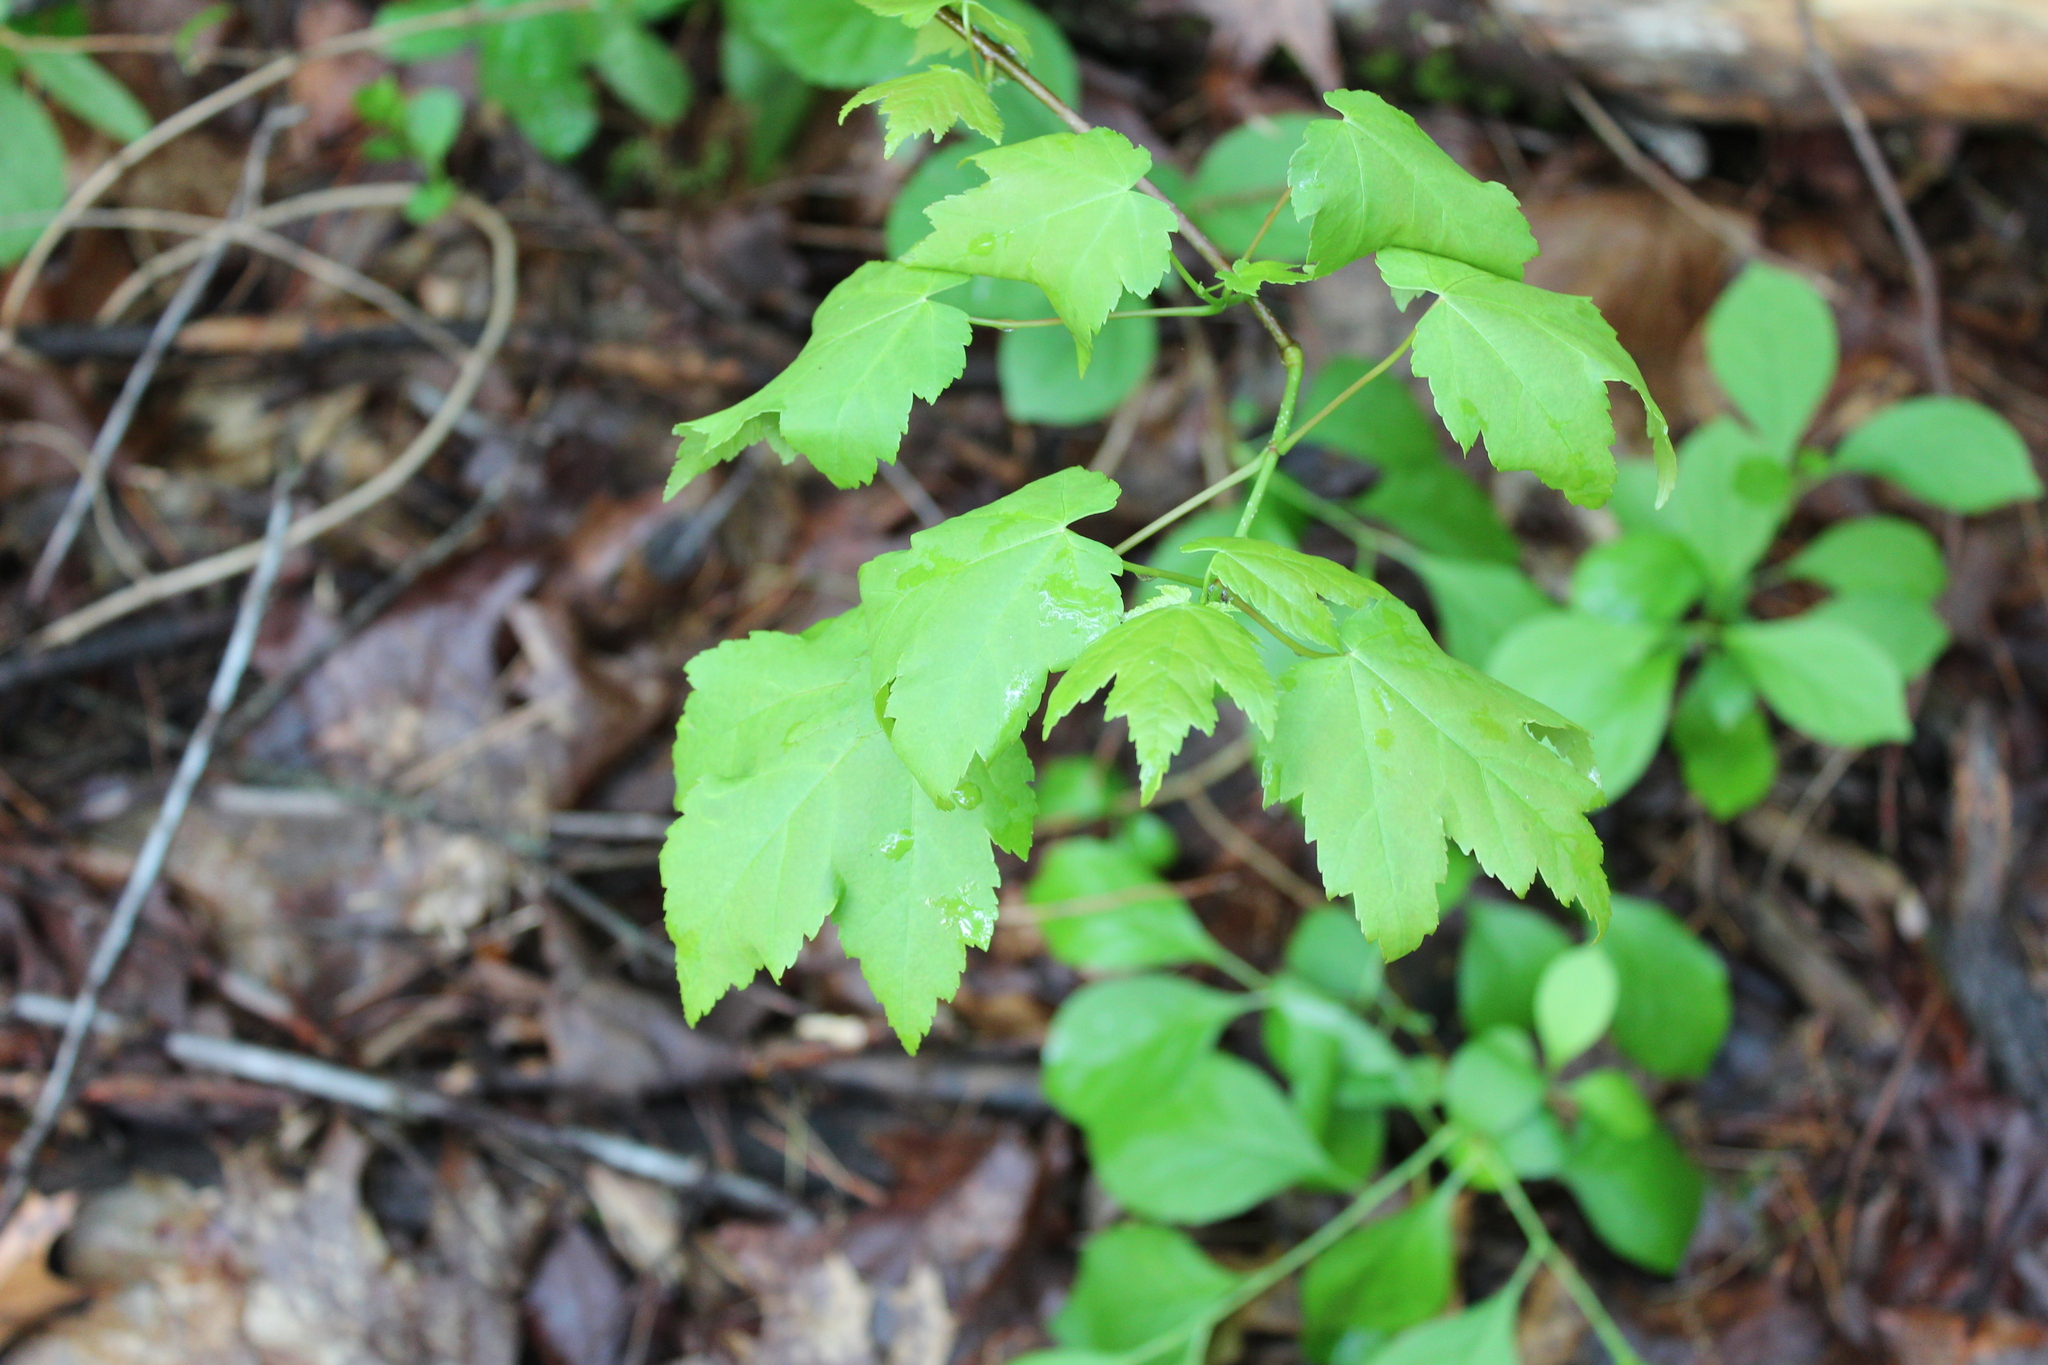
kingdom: Plantae
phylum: Tracheophyta
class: Magnoliopsida
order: Sapindales
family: Sapindaceae
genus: Acer
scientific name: Acer rubrum
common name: Red maple
